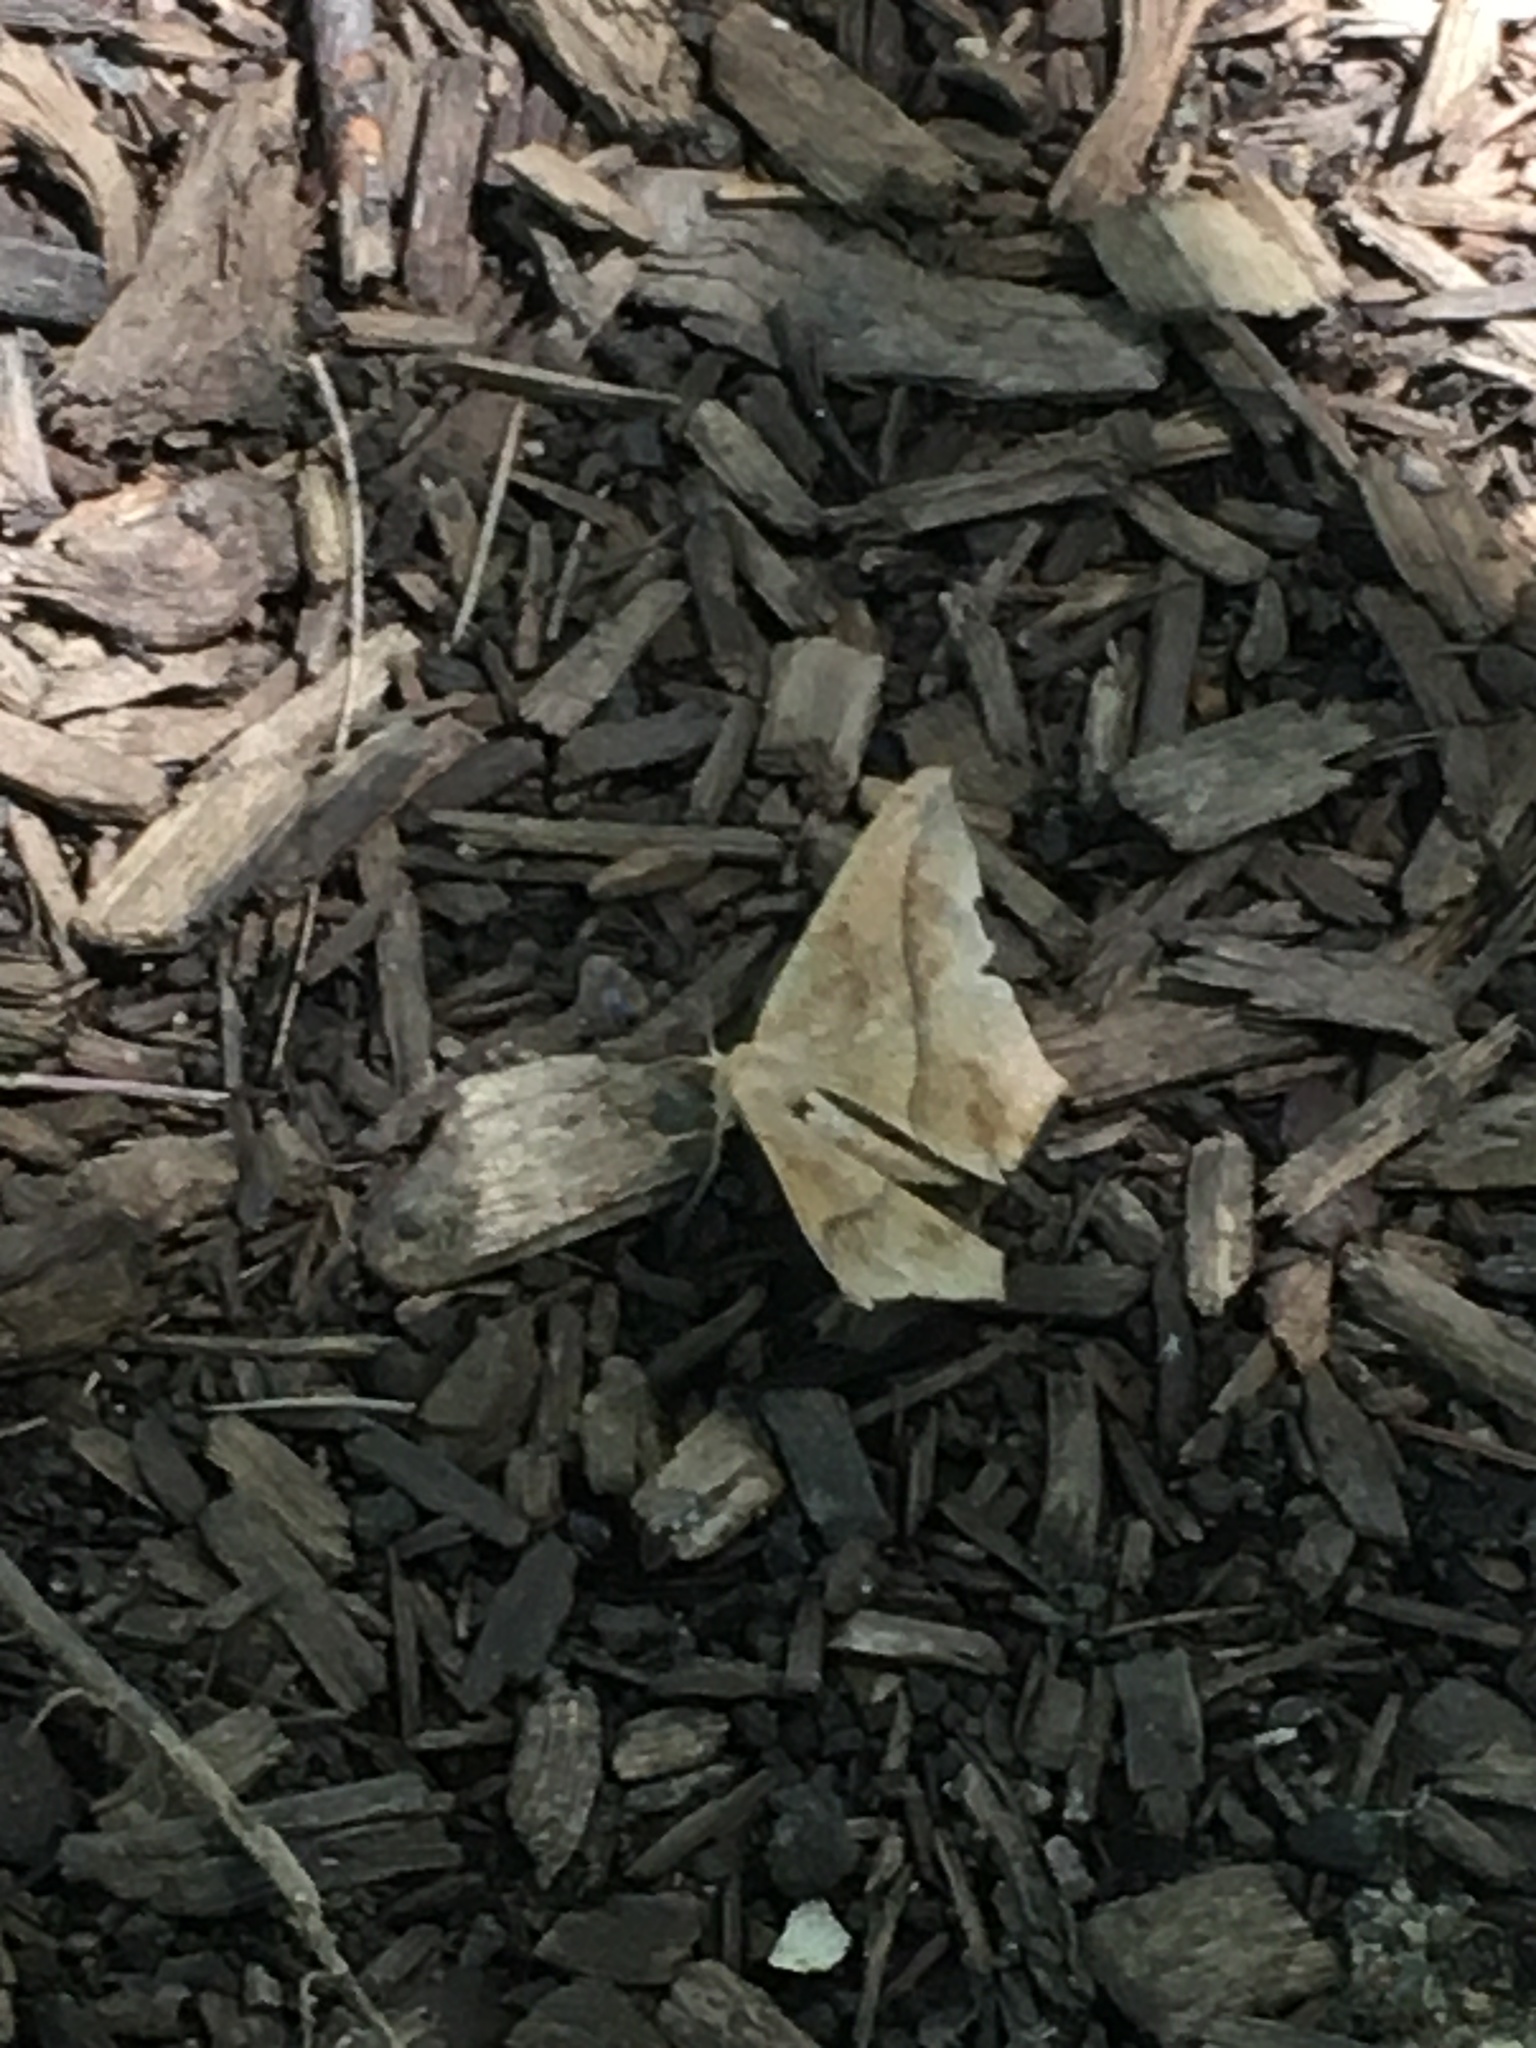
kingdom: Animalia
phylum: Arthropoda
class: Insecta
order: Lepidoptera
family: Geometridae
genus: Prochoerodes
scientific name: Prochoerodes lineola
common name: Large maple spanworm
